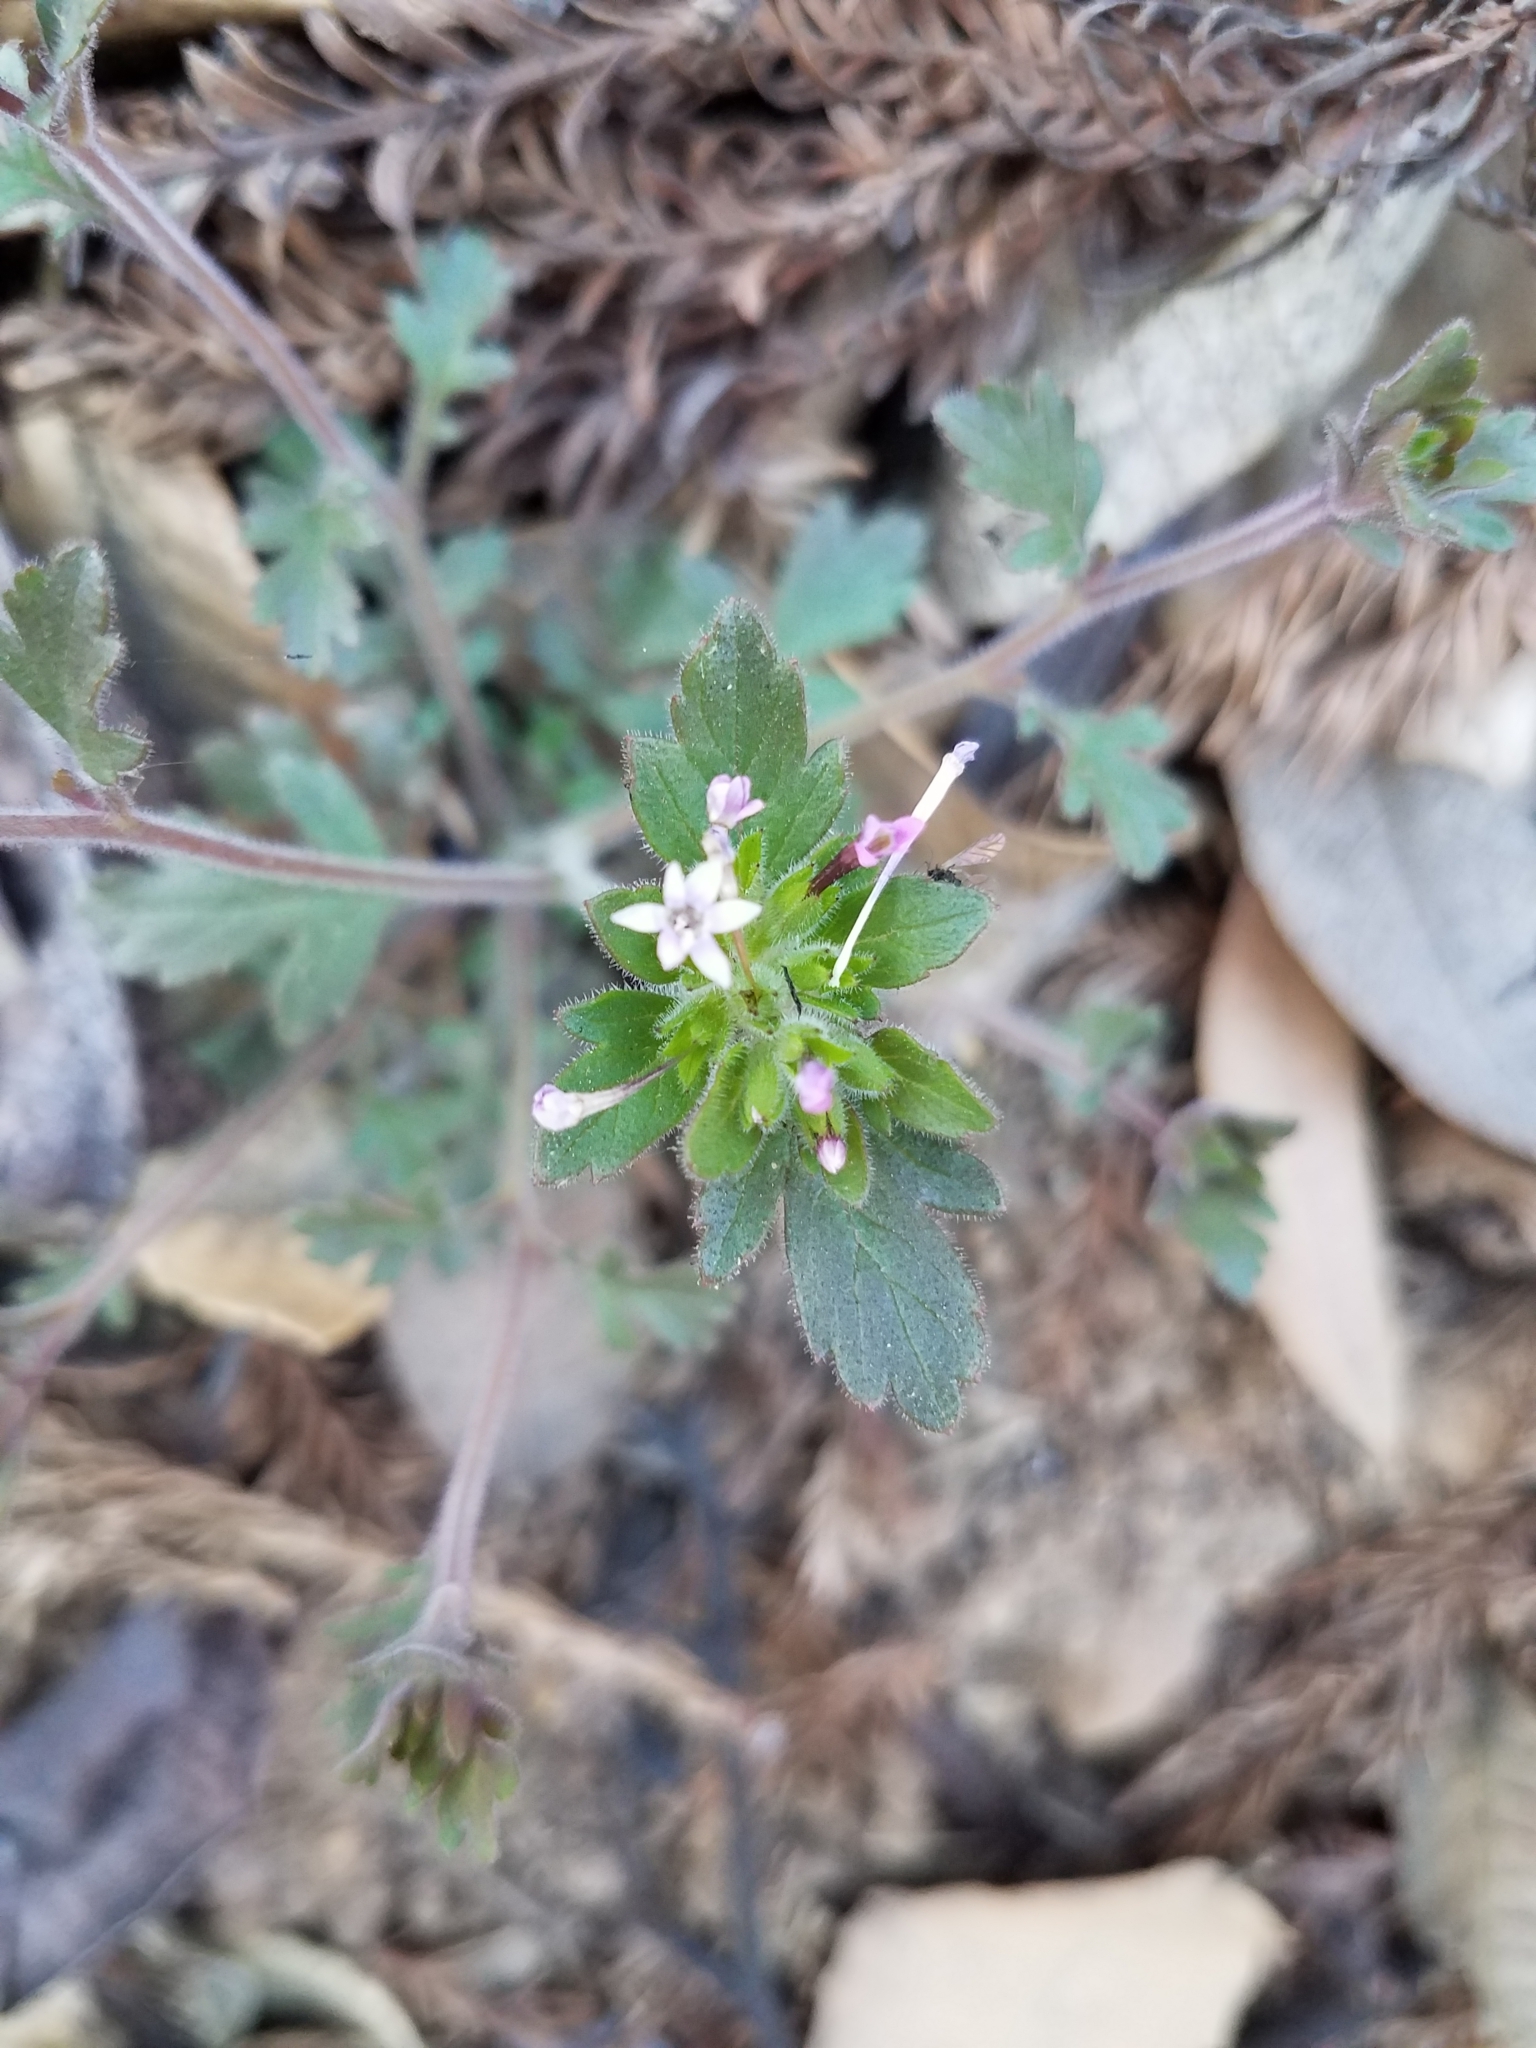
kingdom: Plantae
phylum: Tracheophyta
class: Magnoliopsida
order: Ericales
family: Polemoniaceae
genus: Collomia
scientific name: Collomia heterophylla
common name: Variable-leaved collomia
